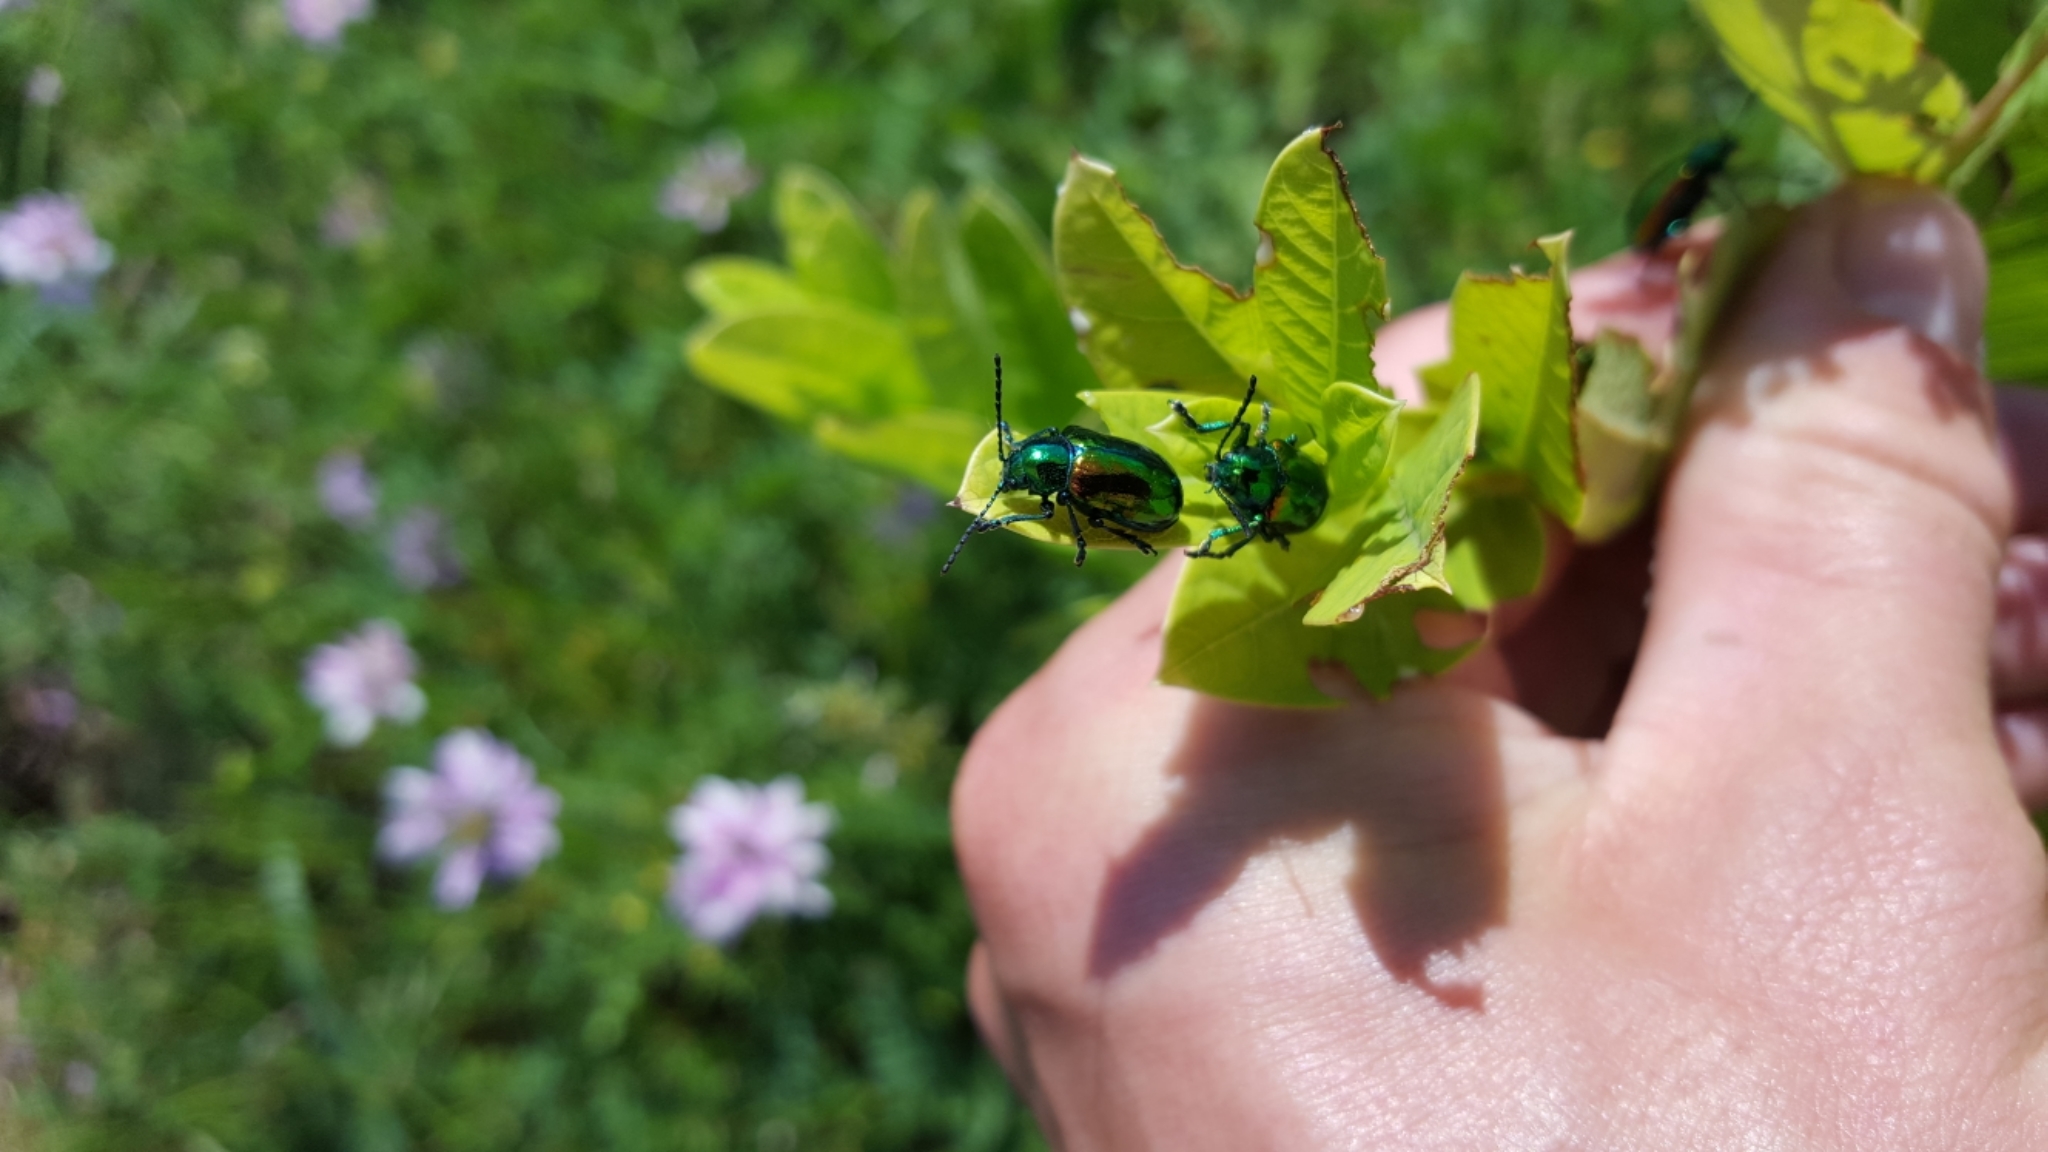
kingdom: Animalia
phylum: Arthropoda
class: Insecta
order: Coleoptera
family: Chrysomelidae
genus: Chrysochus
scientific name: Chrysochus auratus
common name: Dogbane leaf beetle
